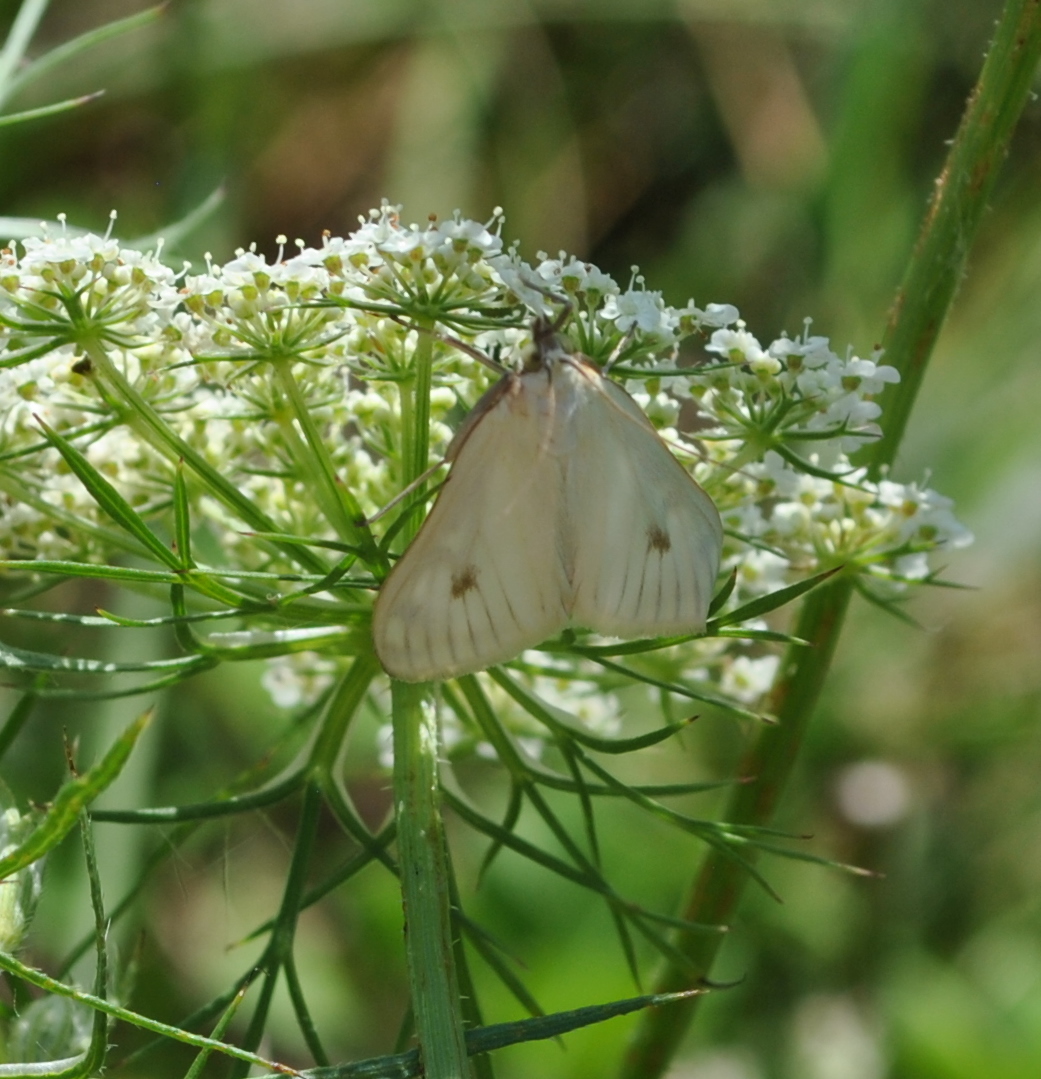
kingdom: Animalia
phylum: Arthropoda
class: Insecta
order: Lepidoptera
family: Crambidae
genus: Sitochroa
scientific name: Sitochroa palealis
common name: Greenish-yellow sitochroa moth
